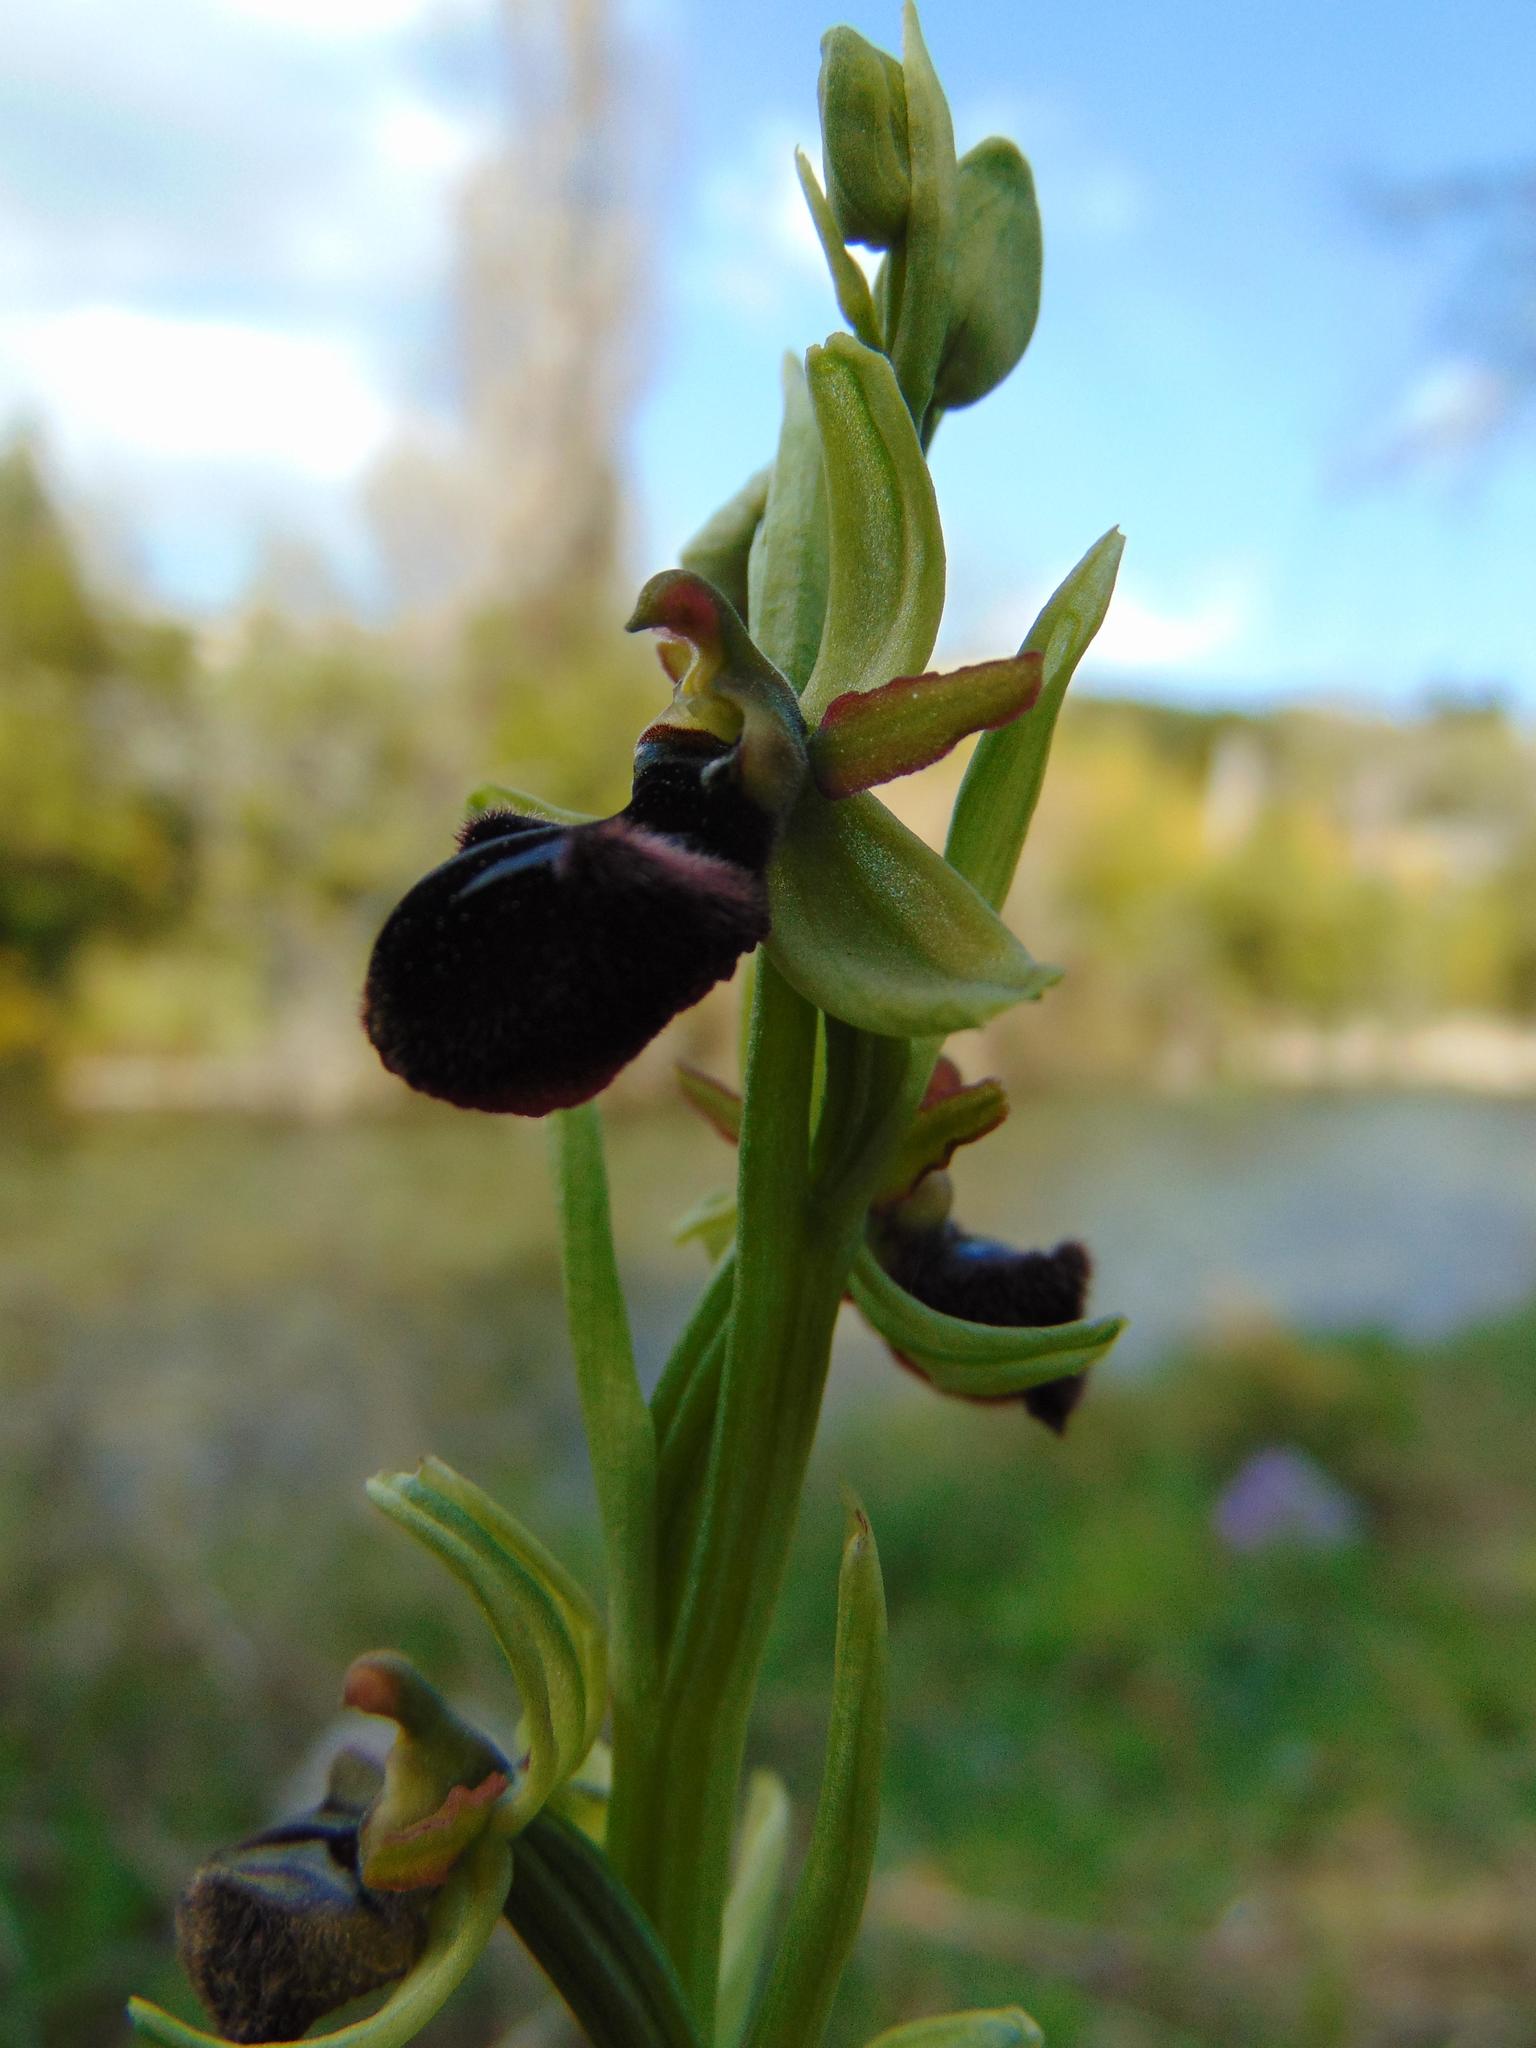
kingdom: Plantae
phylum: Tracheophyta
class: Liliopsida
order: Asparagales
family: Orchidaceae
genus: Ophrys
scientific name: Ophrys sphegodes
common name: Early spider-orchid
